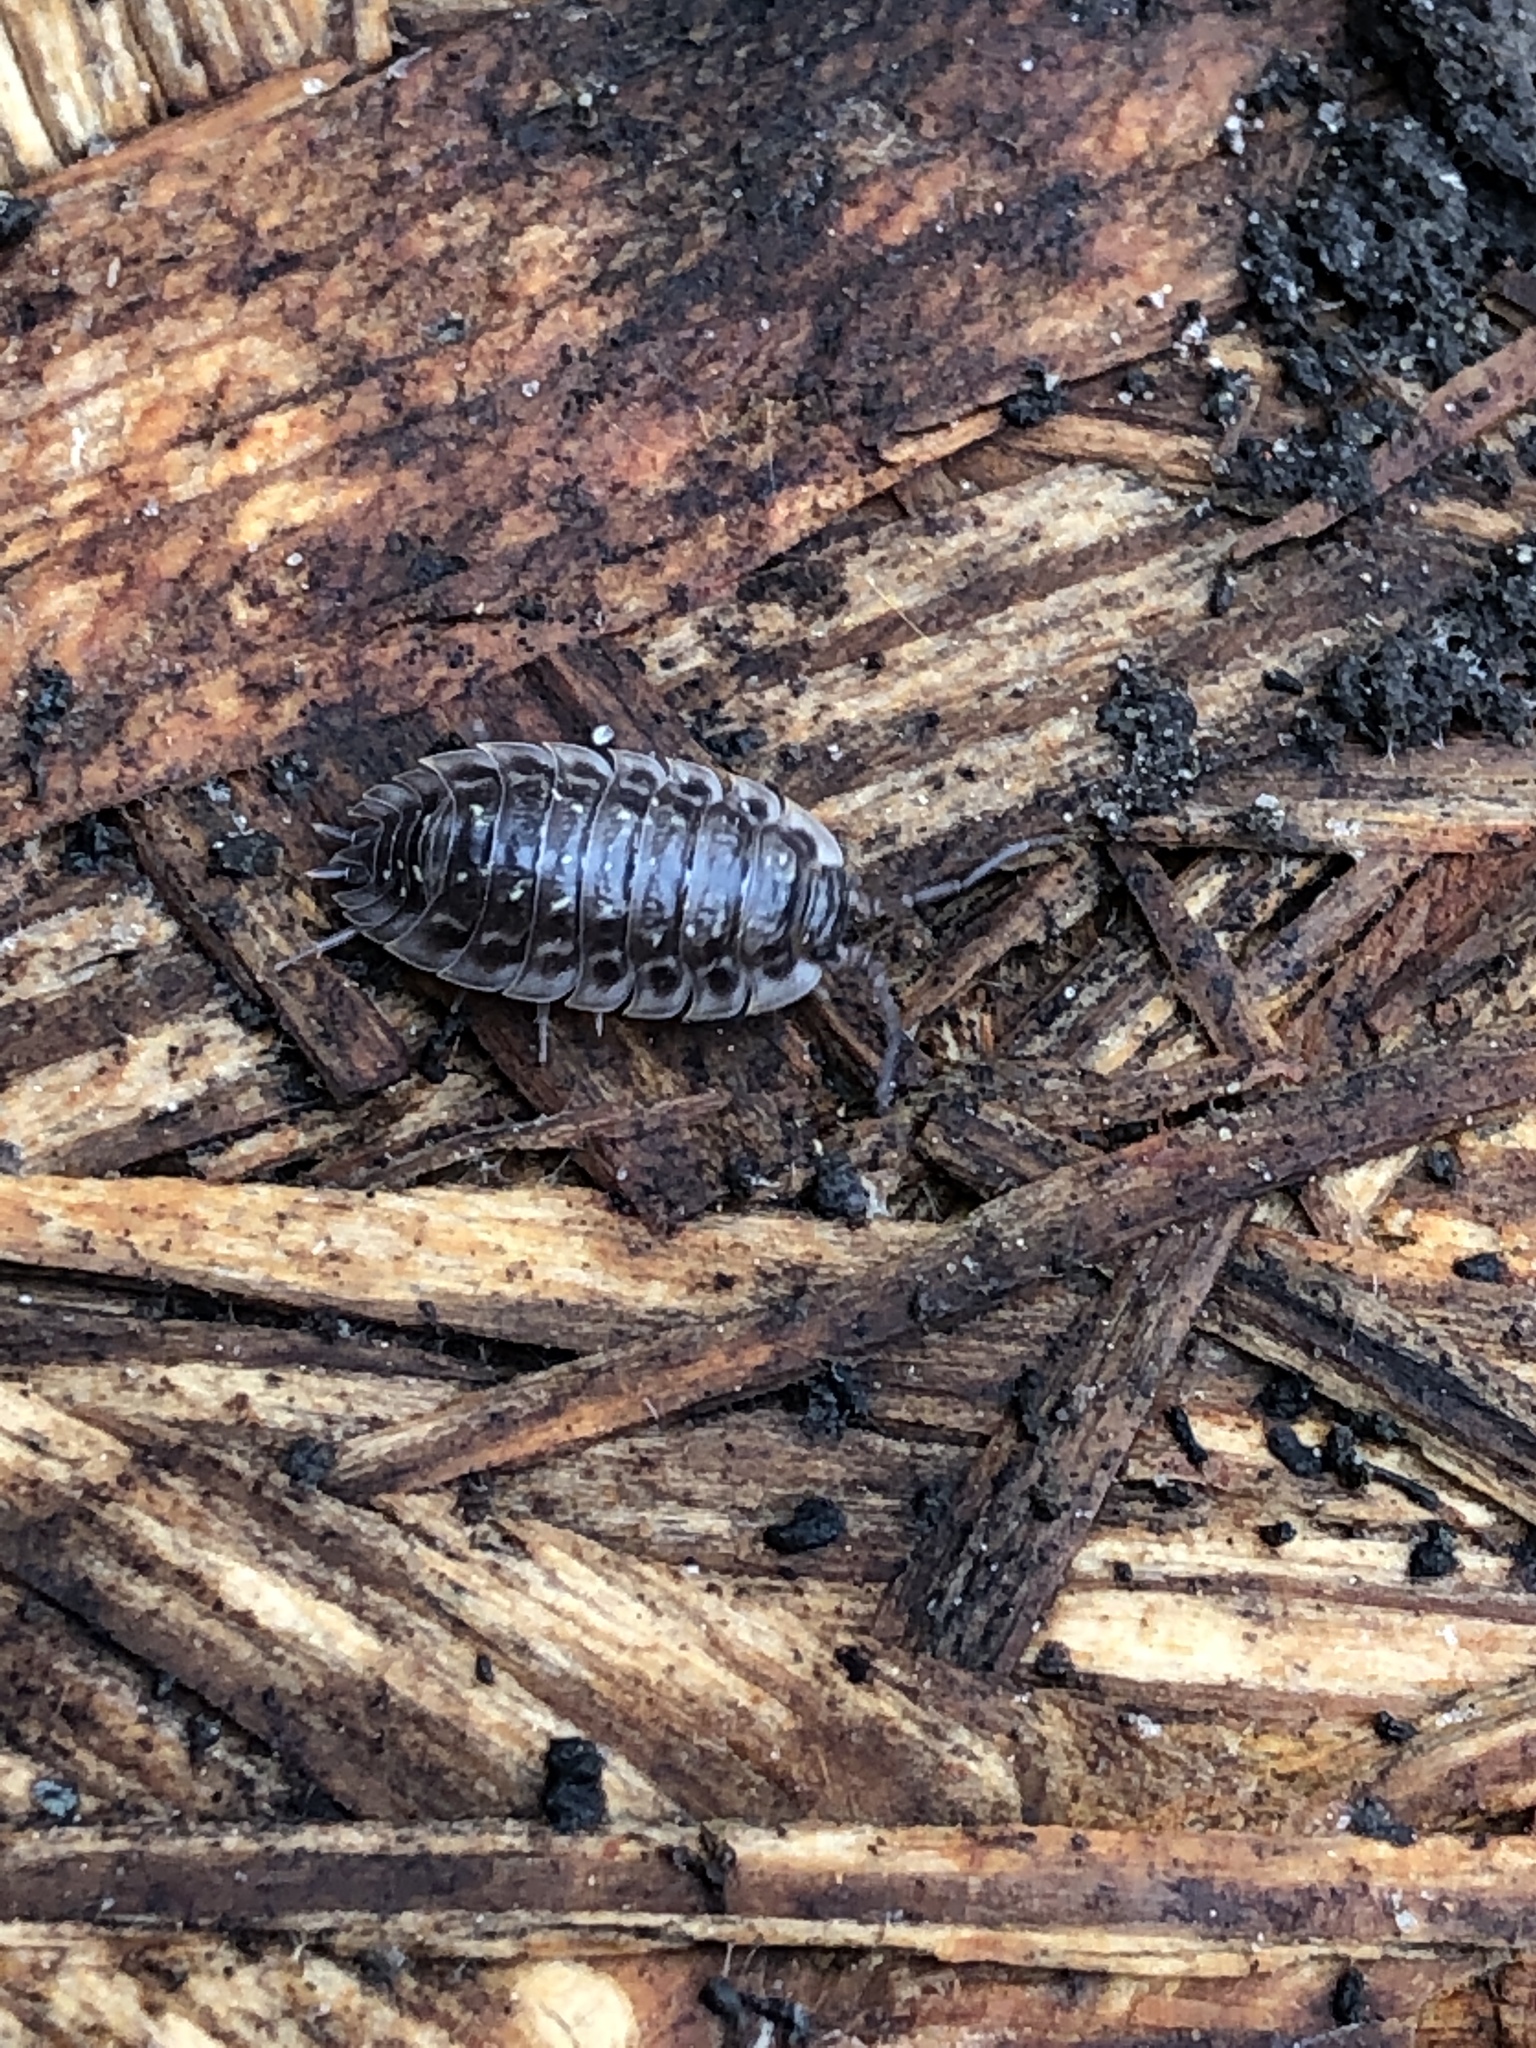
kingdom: Animalia
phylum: Arthropoda
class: Malacostraca
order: Isopoda
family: Oniscidae
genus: Oniscus
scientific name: Oniscus asellus
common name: Common shiny woodlouse
